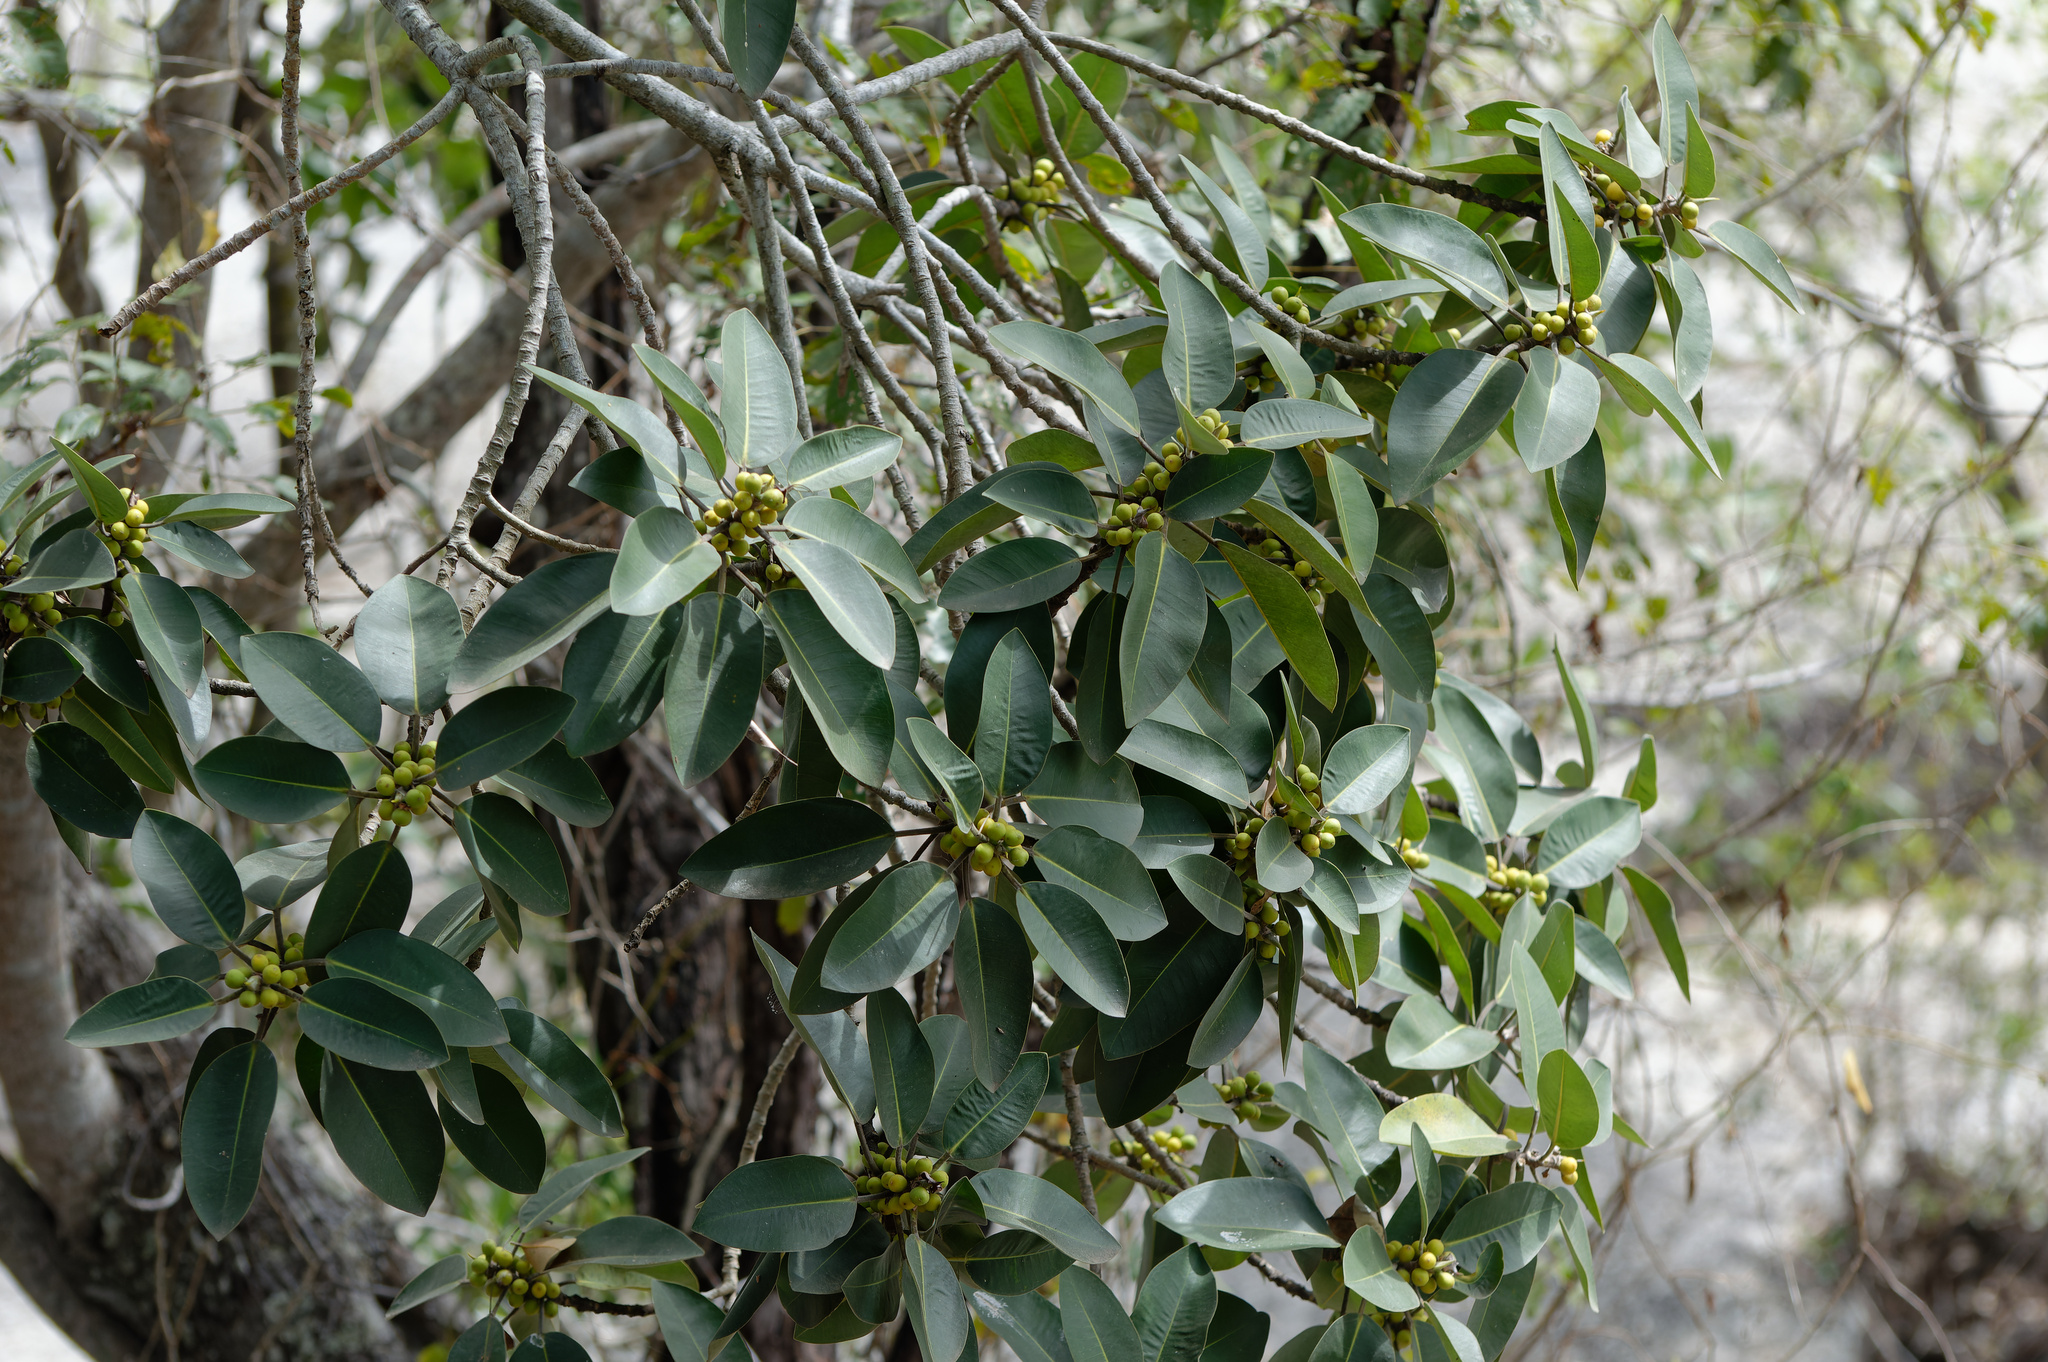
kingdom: Plantae
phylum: Tracheophyta
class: Magnoliopsida
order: Rosales
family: Moraceae
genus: Ficus
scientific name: Ficus rubiginosa
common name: Port jackson fig
